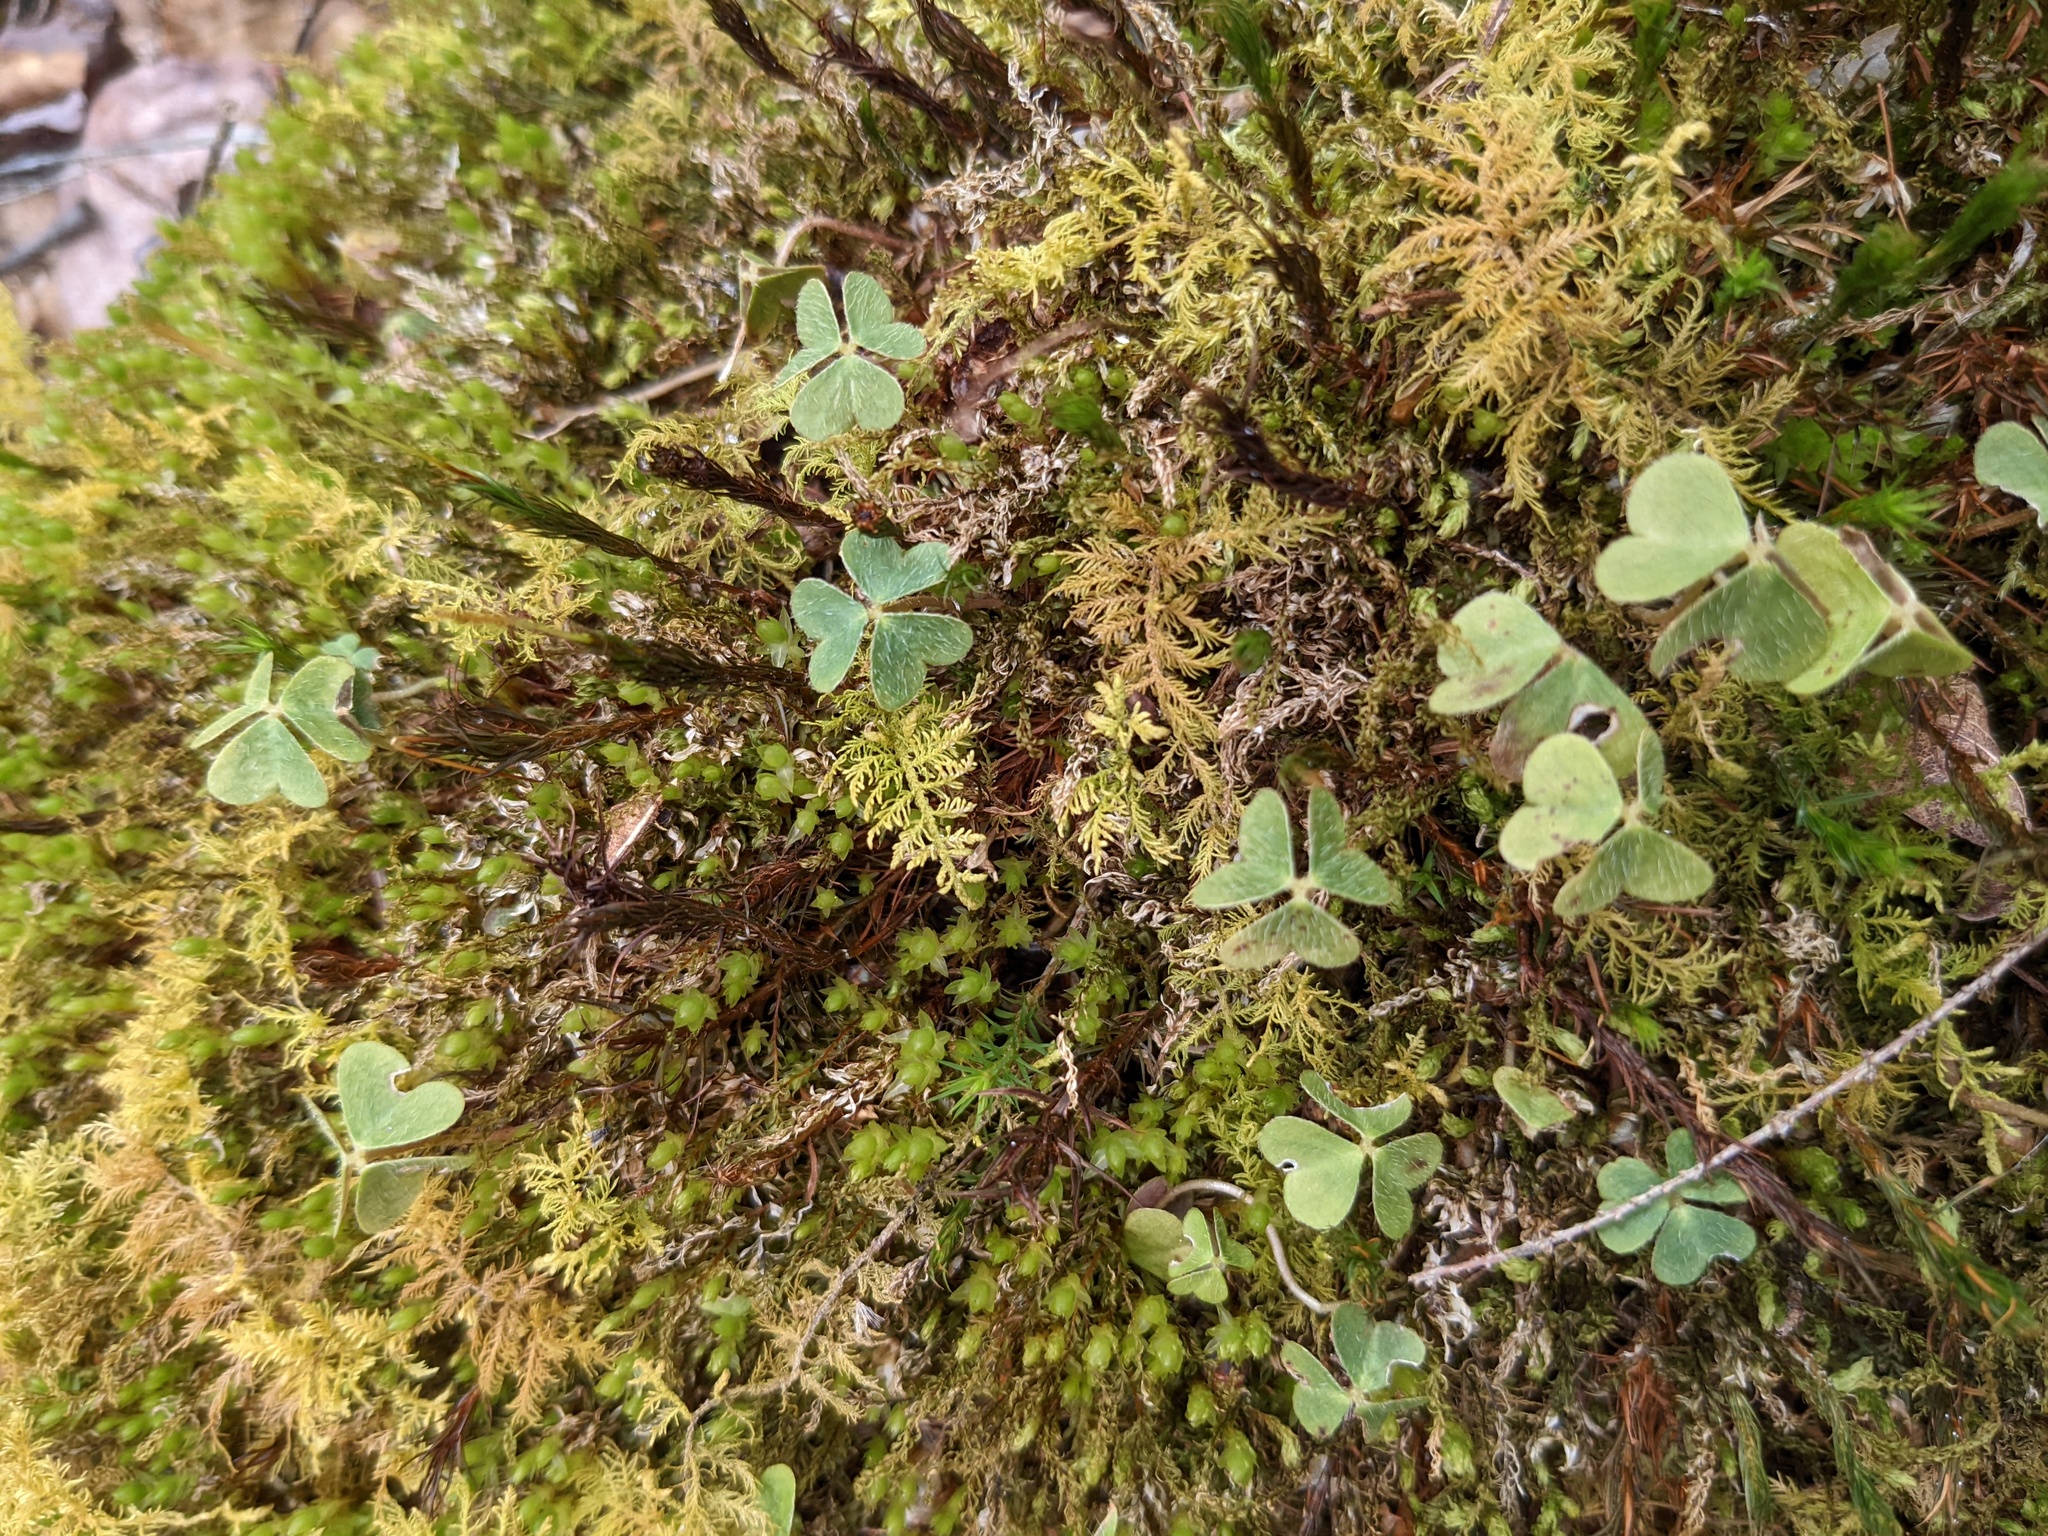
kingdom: Plantae
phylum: Tracheophyta
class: Magnoliopsida
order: Oxalidales
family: Oxalidaceae
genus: Oxalis
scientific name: Oxalis montana
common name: American wood-sorrel
